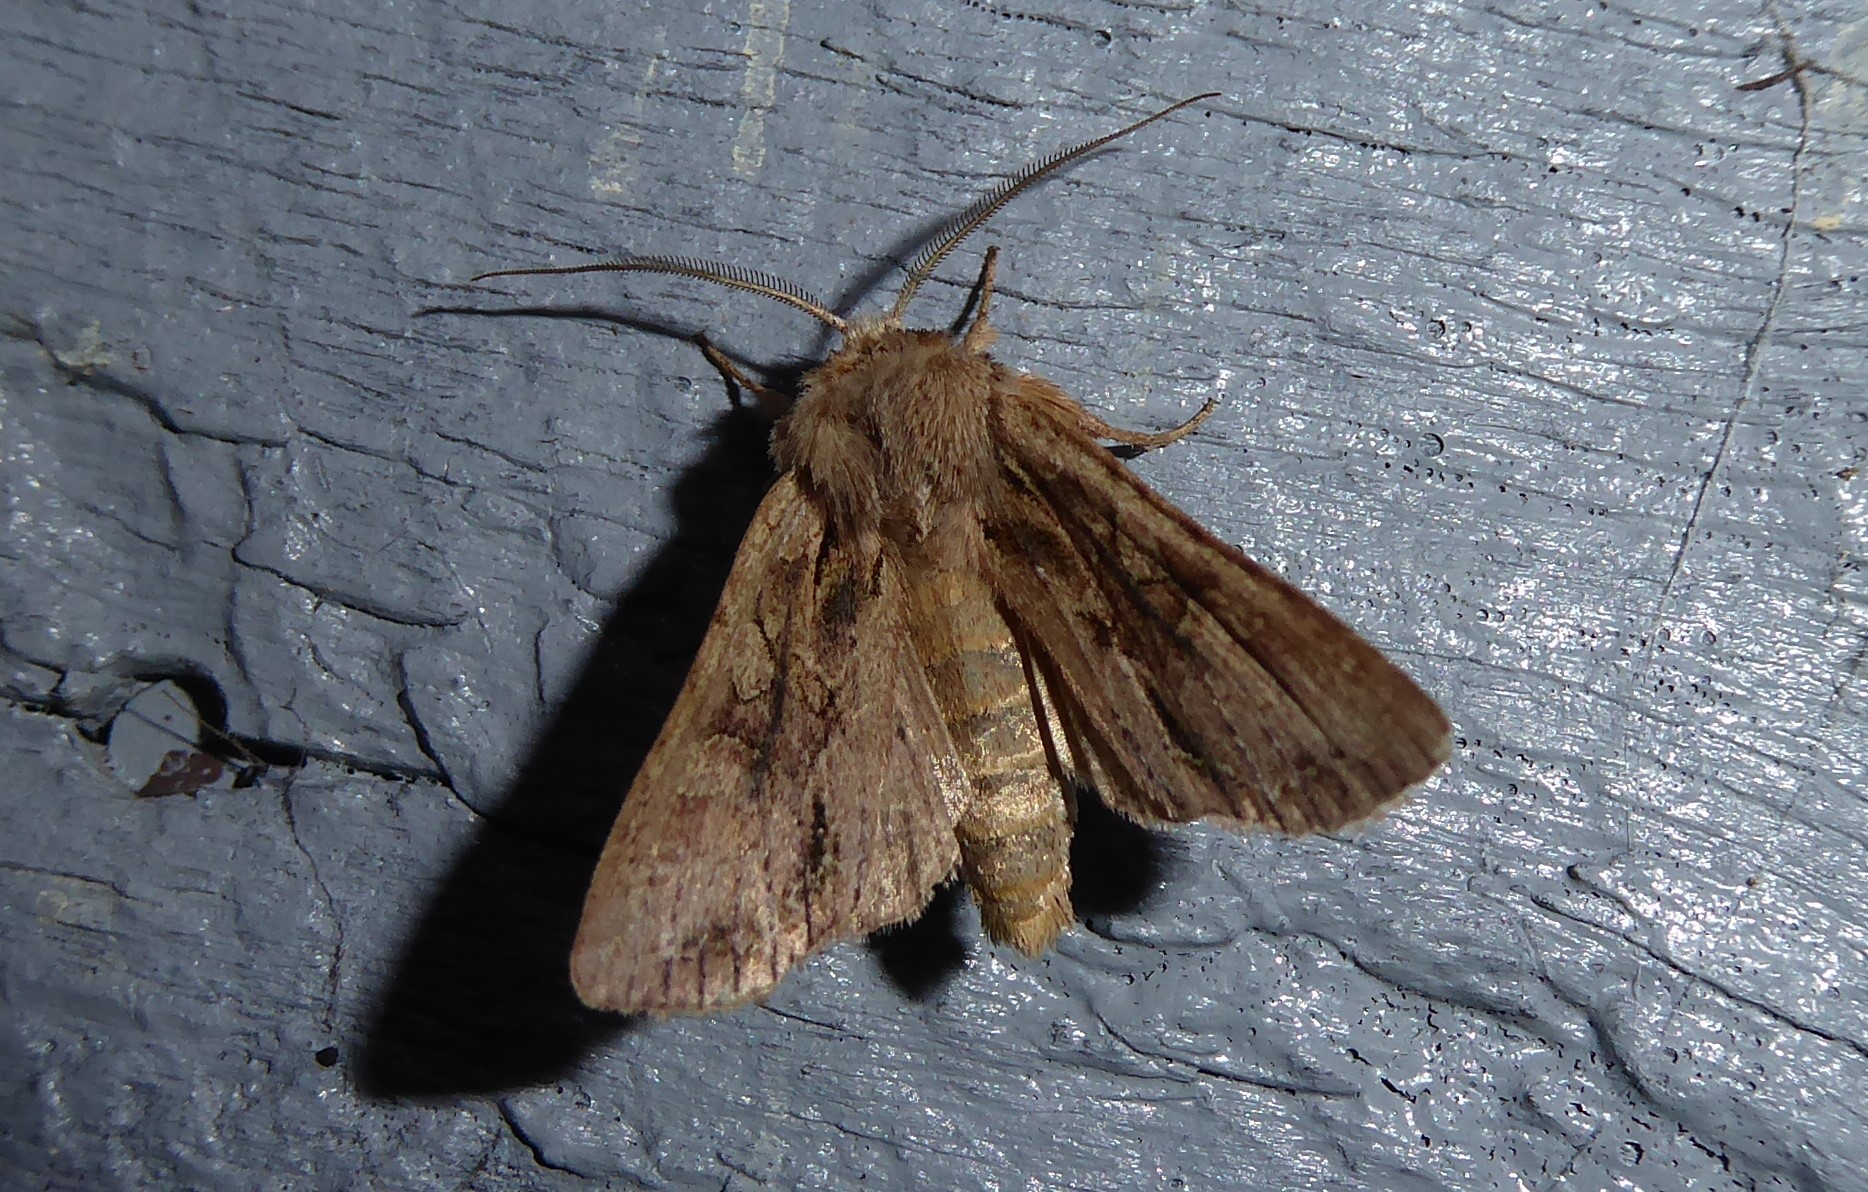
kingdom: Animalia
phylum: Arthropoda
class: Insecta
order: Lepidoptera
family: Noctuidae
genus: Ichneutica
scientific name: Ichneutica
